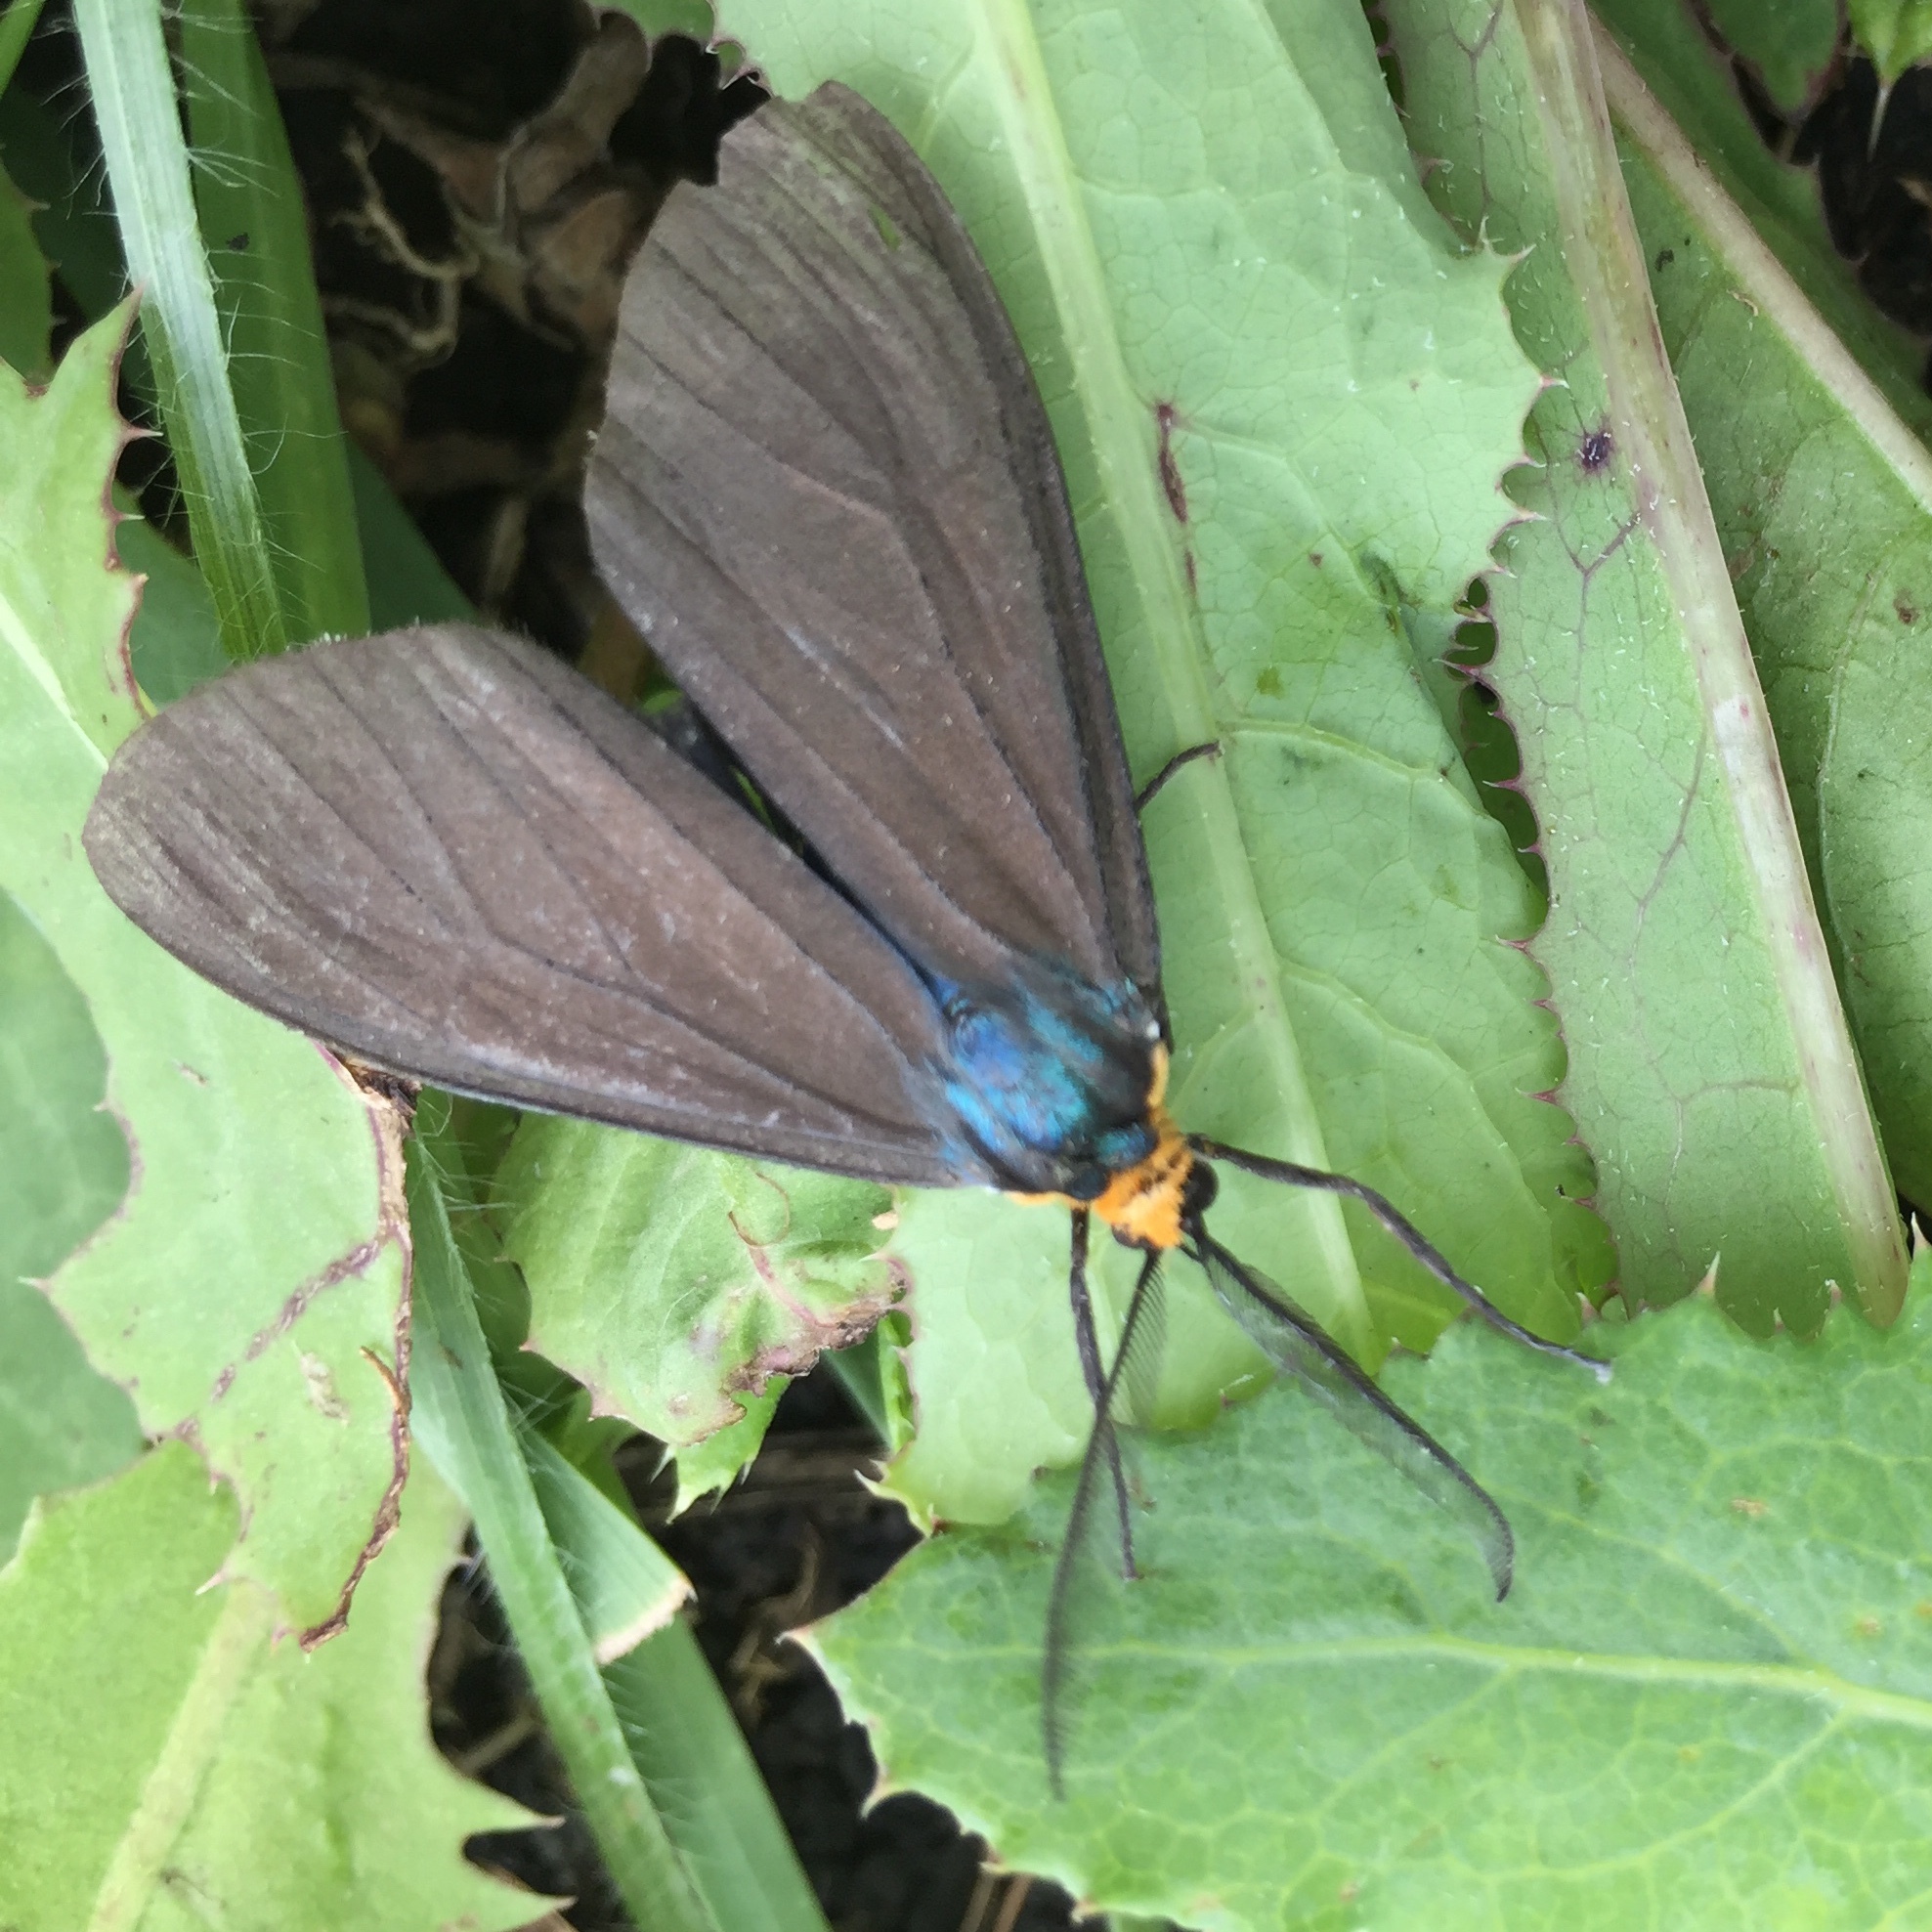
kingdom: Animalia
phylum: Arthropoda
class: Insecta
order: Lepidoptera
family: Erebidae
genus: Ctenucha
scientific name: Ctenucha virginica
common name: Virginia ctenucha moth
